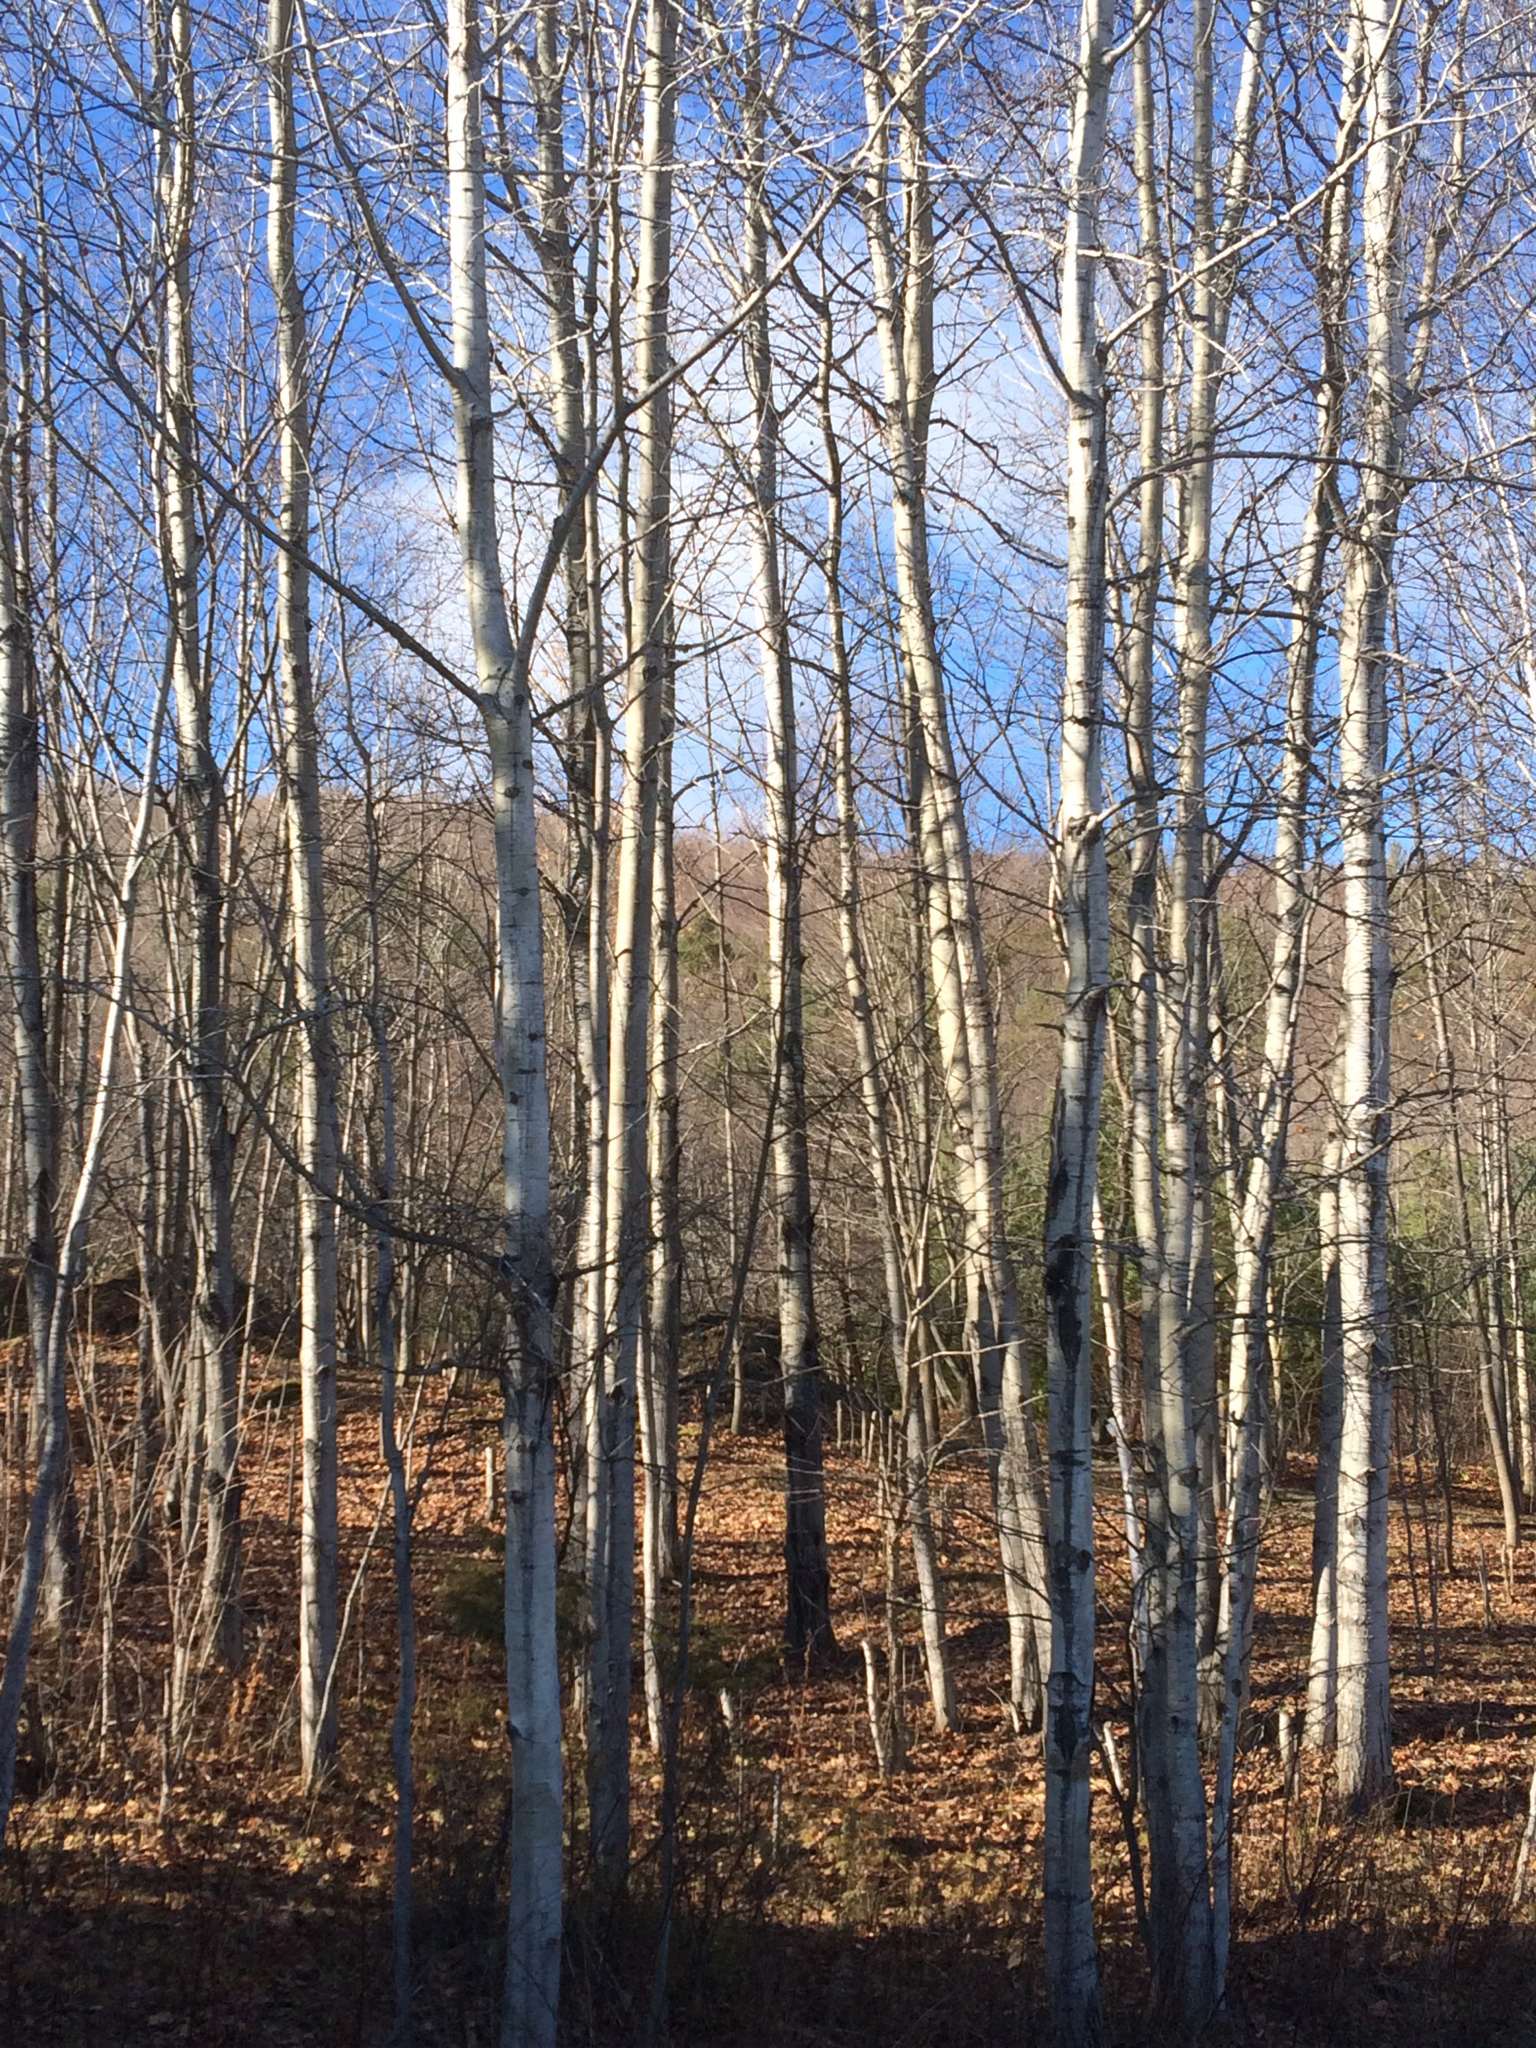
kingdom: Plantae
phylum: Tracheophyta
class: Magnoliopsida
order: Malpighiales
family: Salicaceae
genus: Populus
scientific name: Populus tremuloides
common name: Quaking aspen
